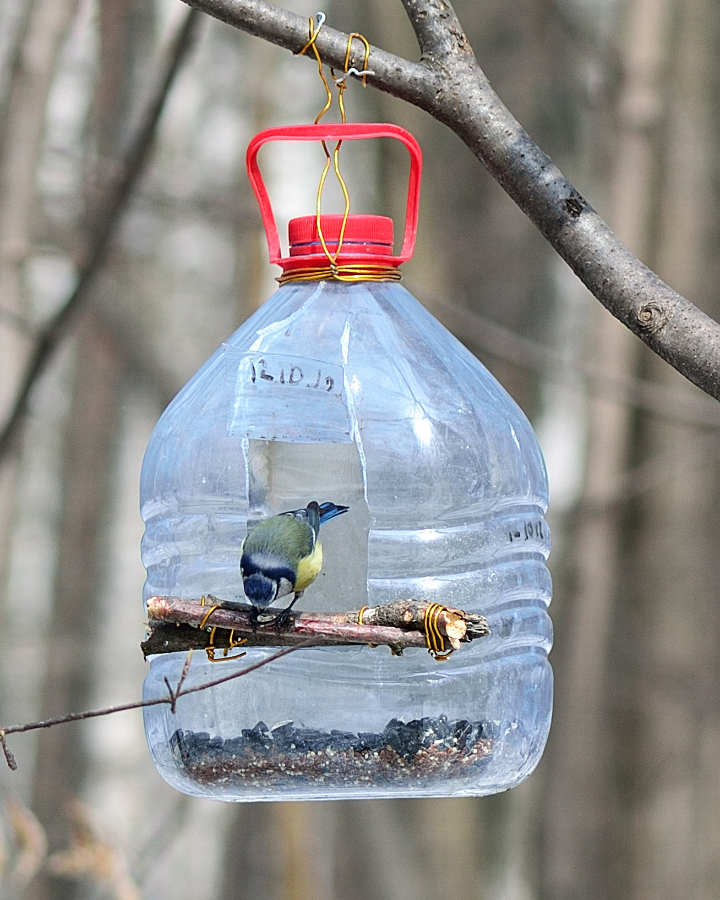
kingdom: Animalia
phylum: Chordata
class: Aves
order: Passeriformes
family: Paridae
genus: Cyanistes
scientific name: Cyanistes caeruleus
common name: Eurasian blue tit
